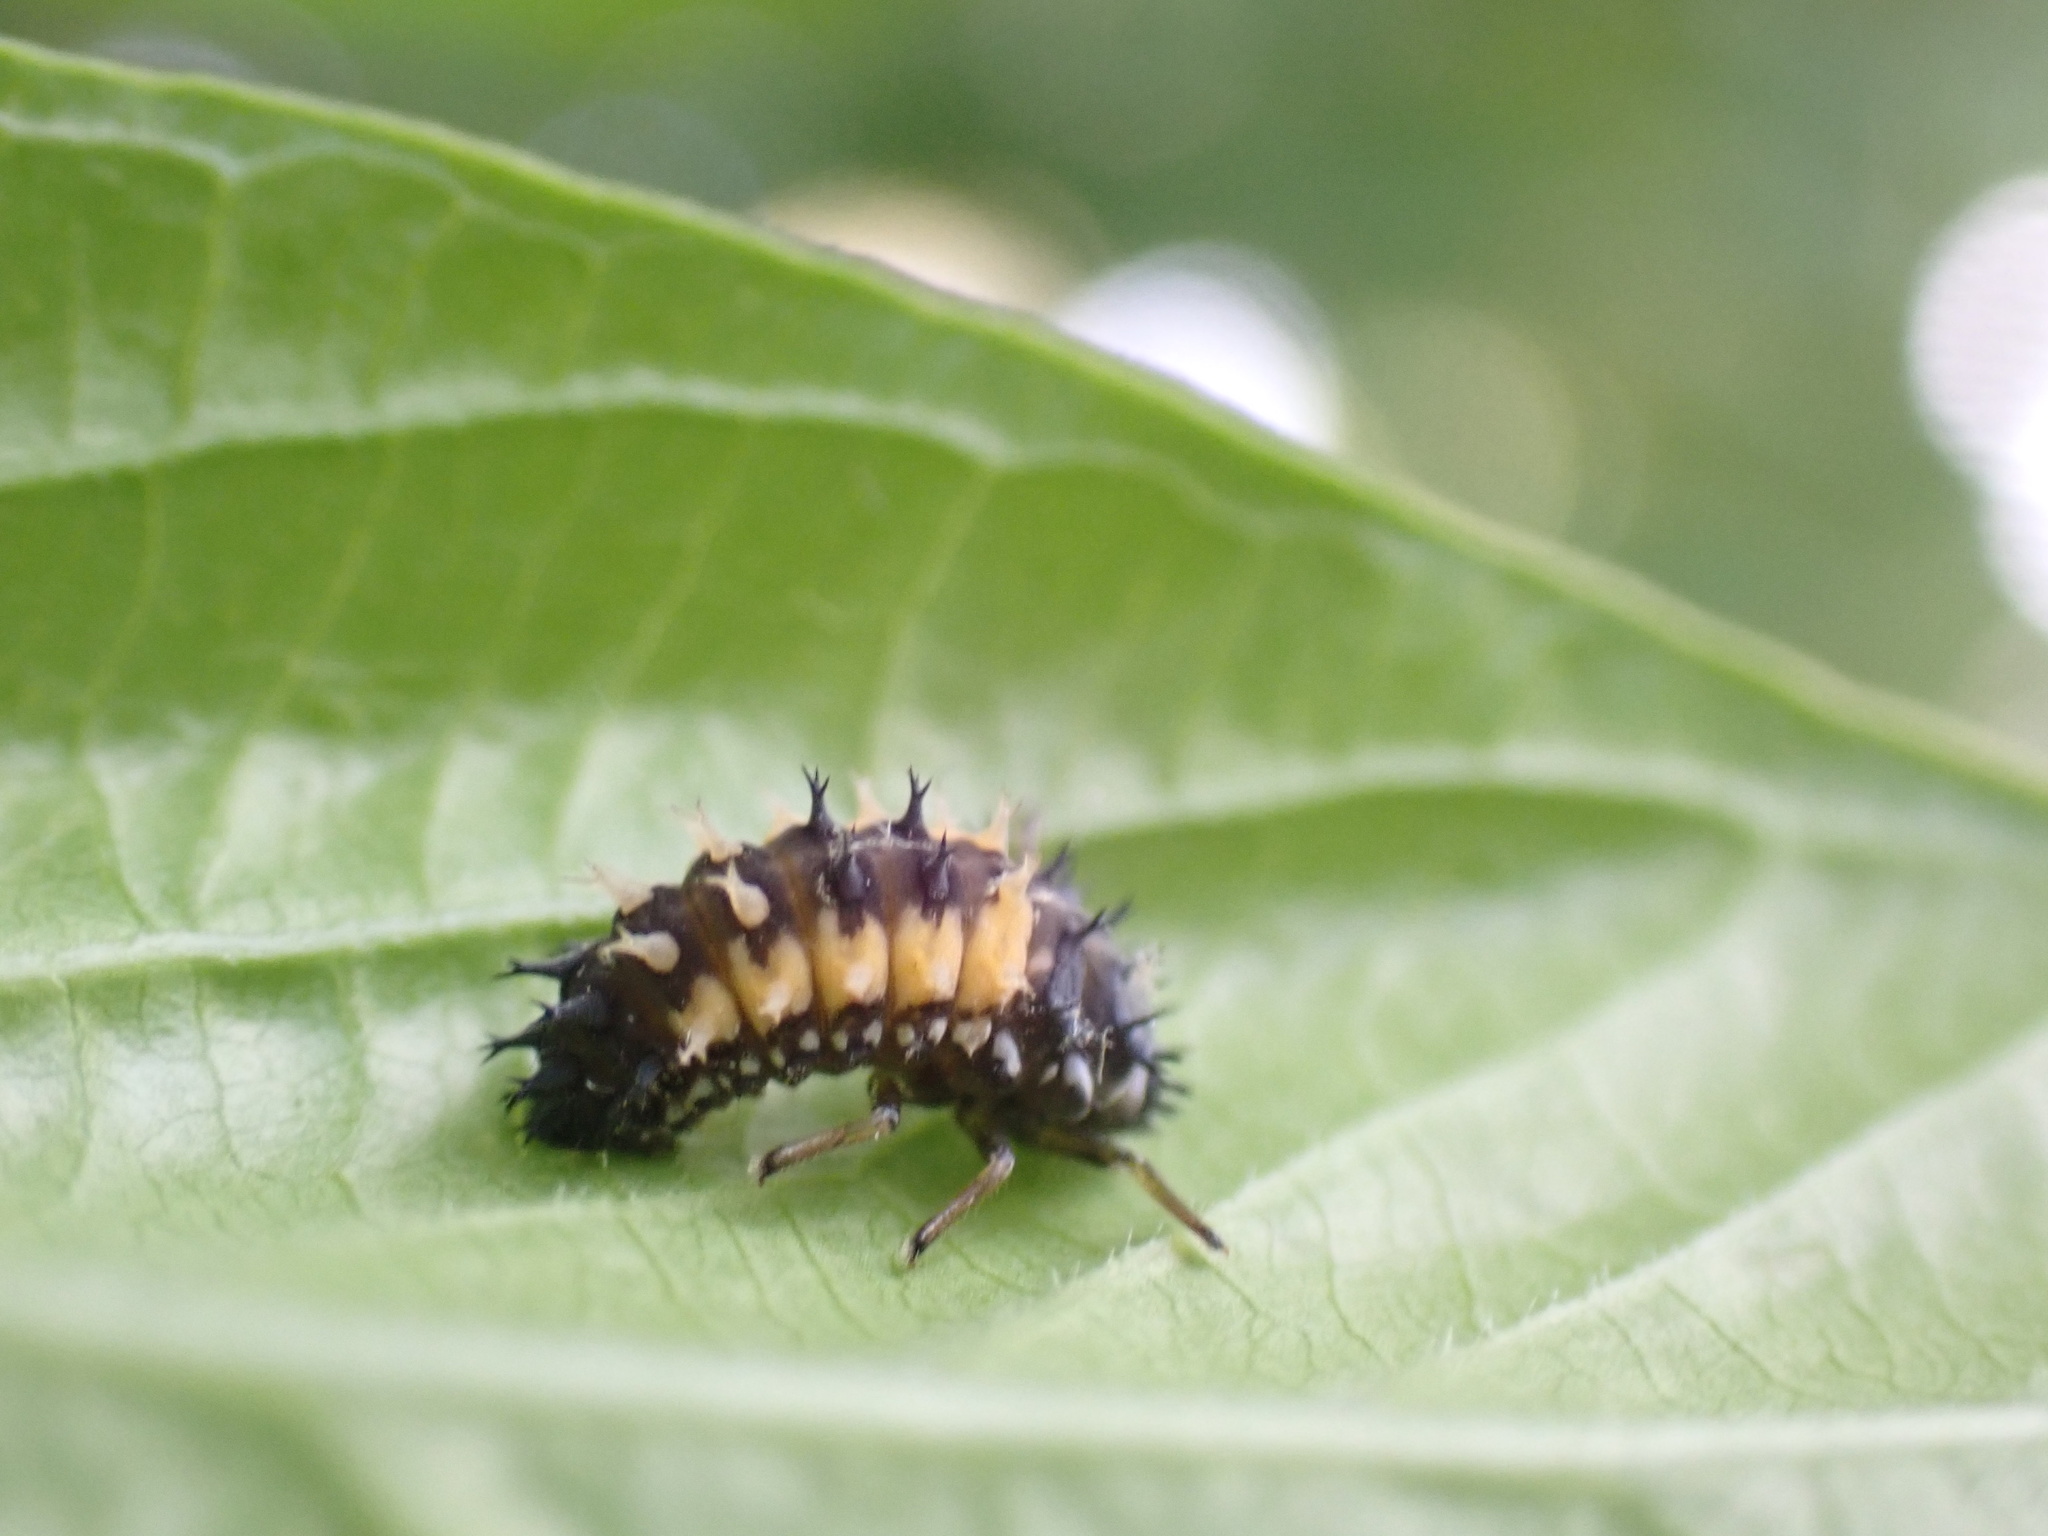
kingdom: Animalia
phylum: Arthropoda
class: Insecta
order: Coleoptera
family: Coccinellidae
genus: Harmonia
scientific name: Harmonia axyridis
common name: Harlequin ladybird
